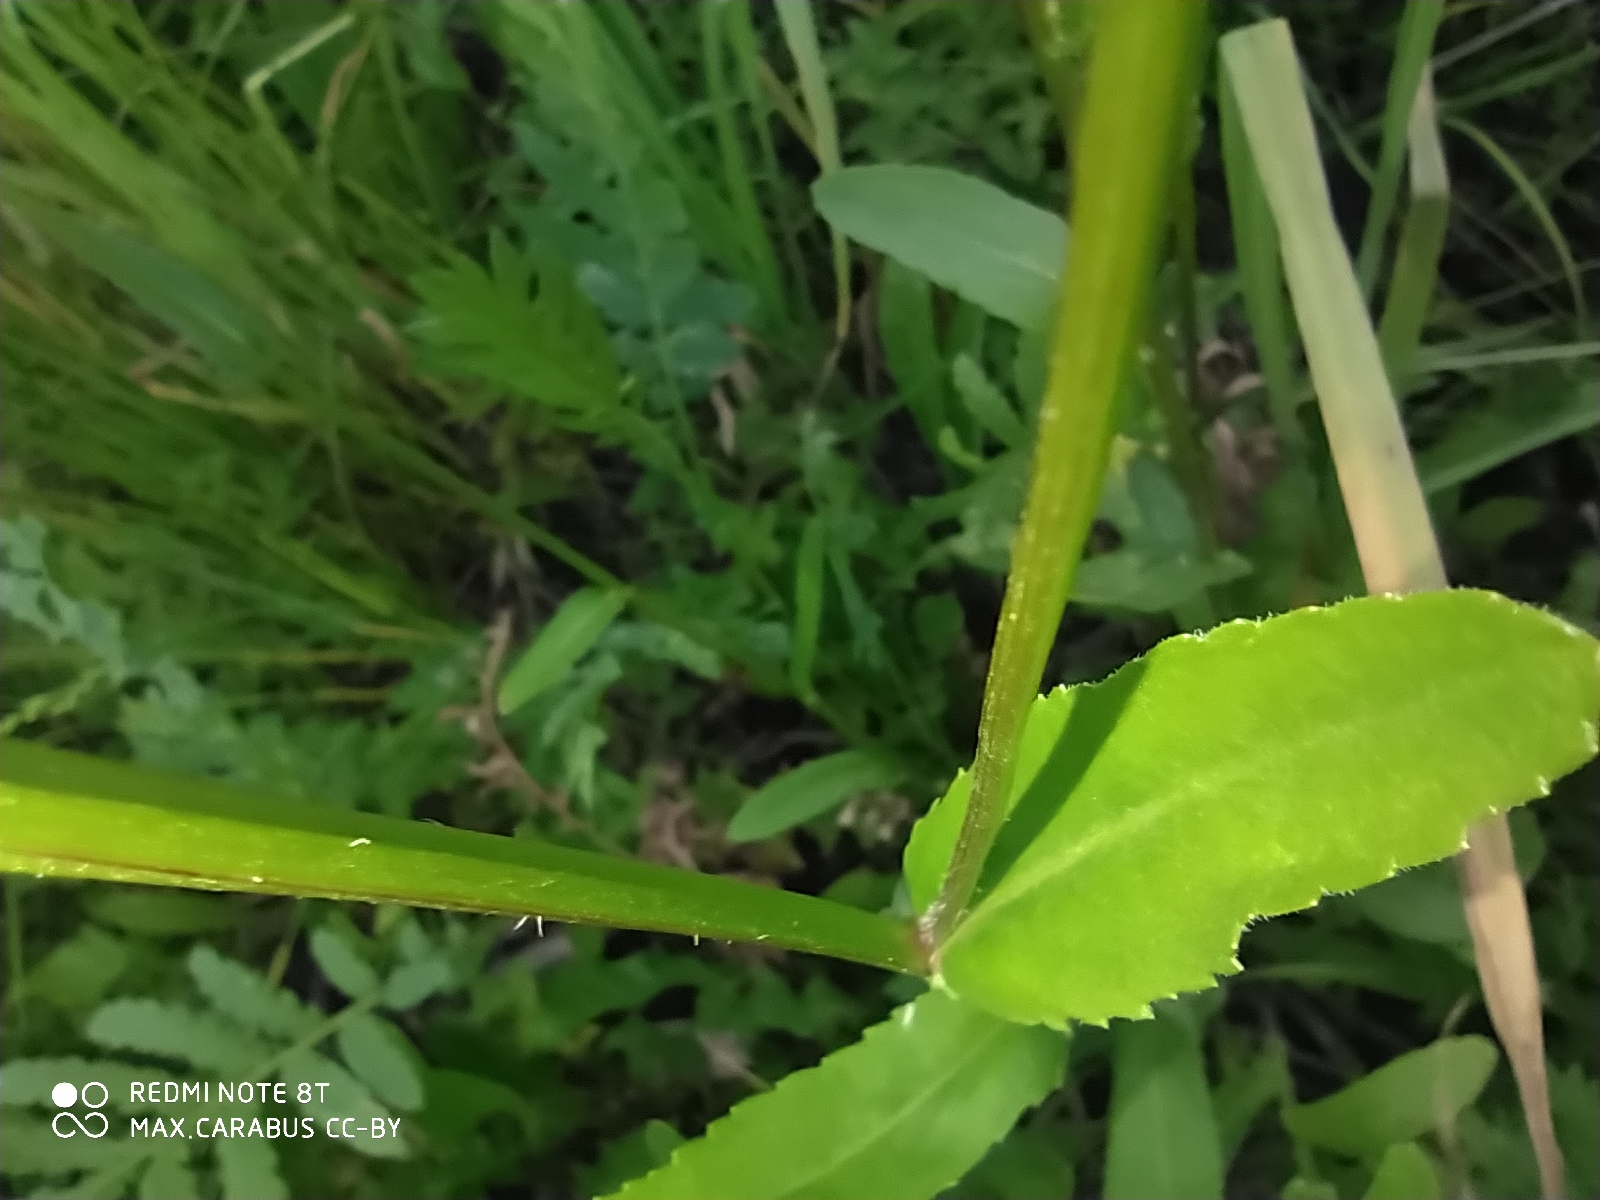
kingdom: Plantae
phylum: Tracheophyta
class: Magnoliopsida
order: Asterales
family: Asteraceae
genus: Leucanthemum
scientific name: Leucanthemum vulgare
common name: Oxeye daisy
